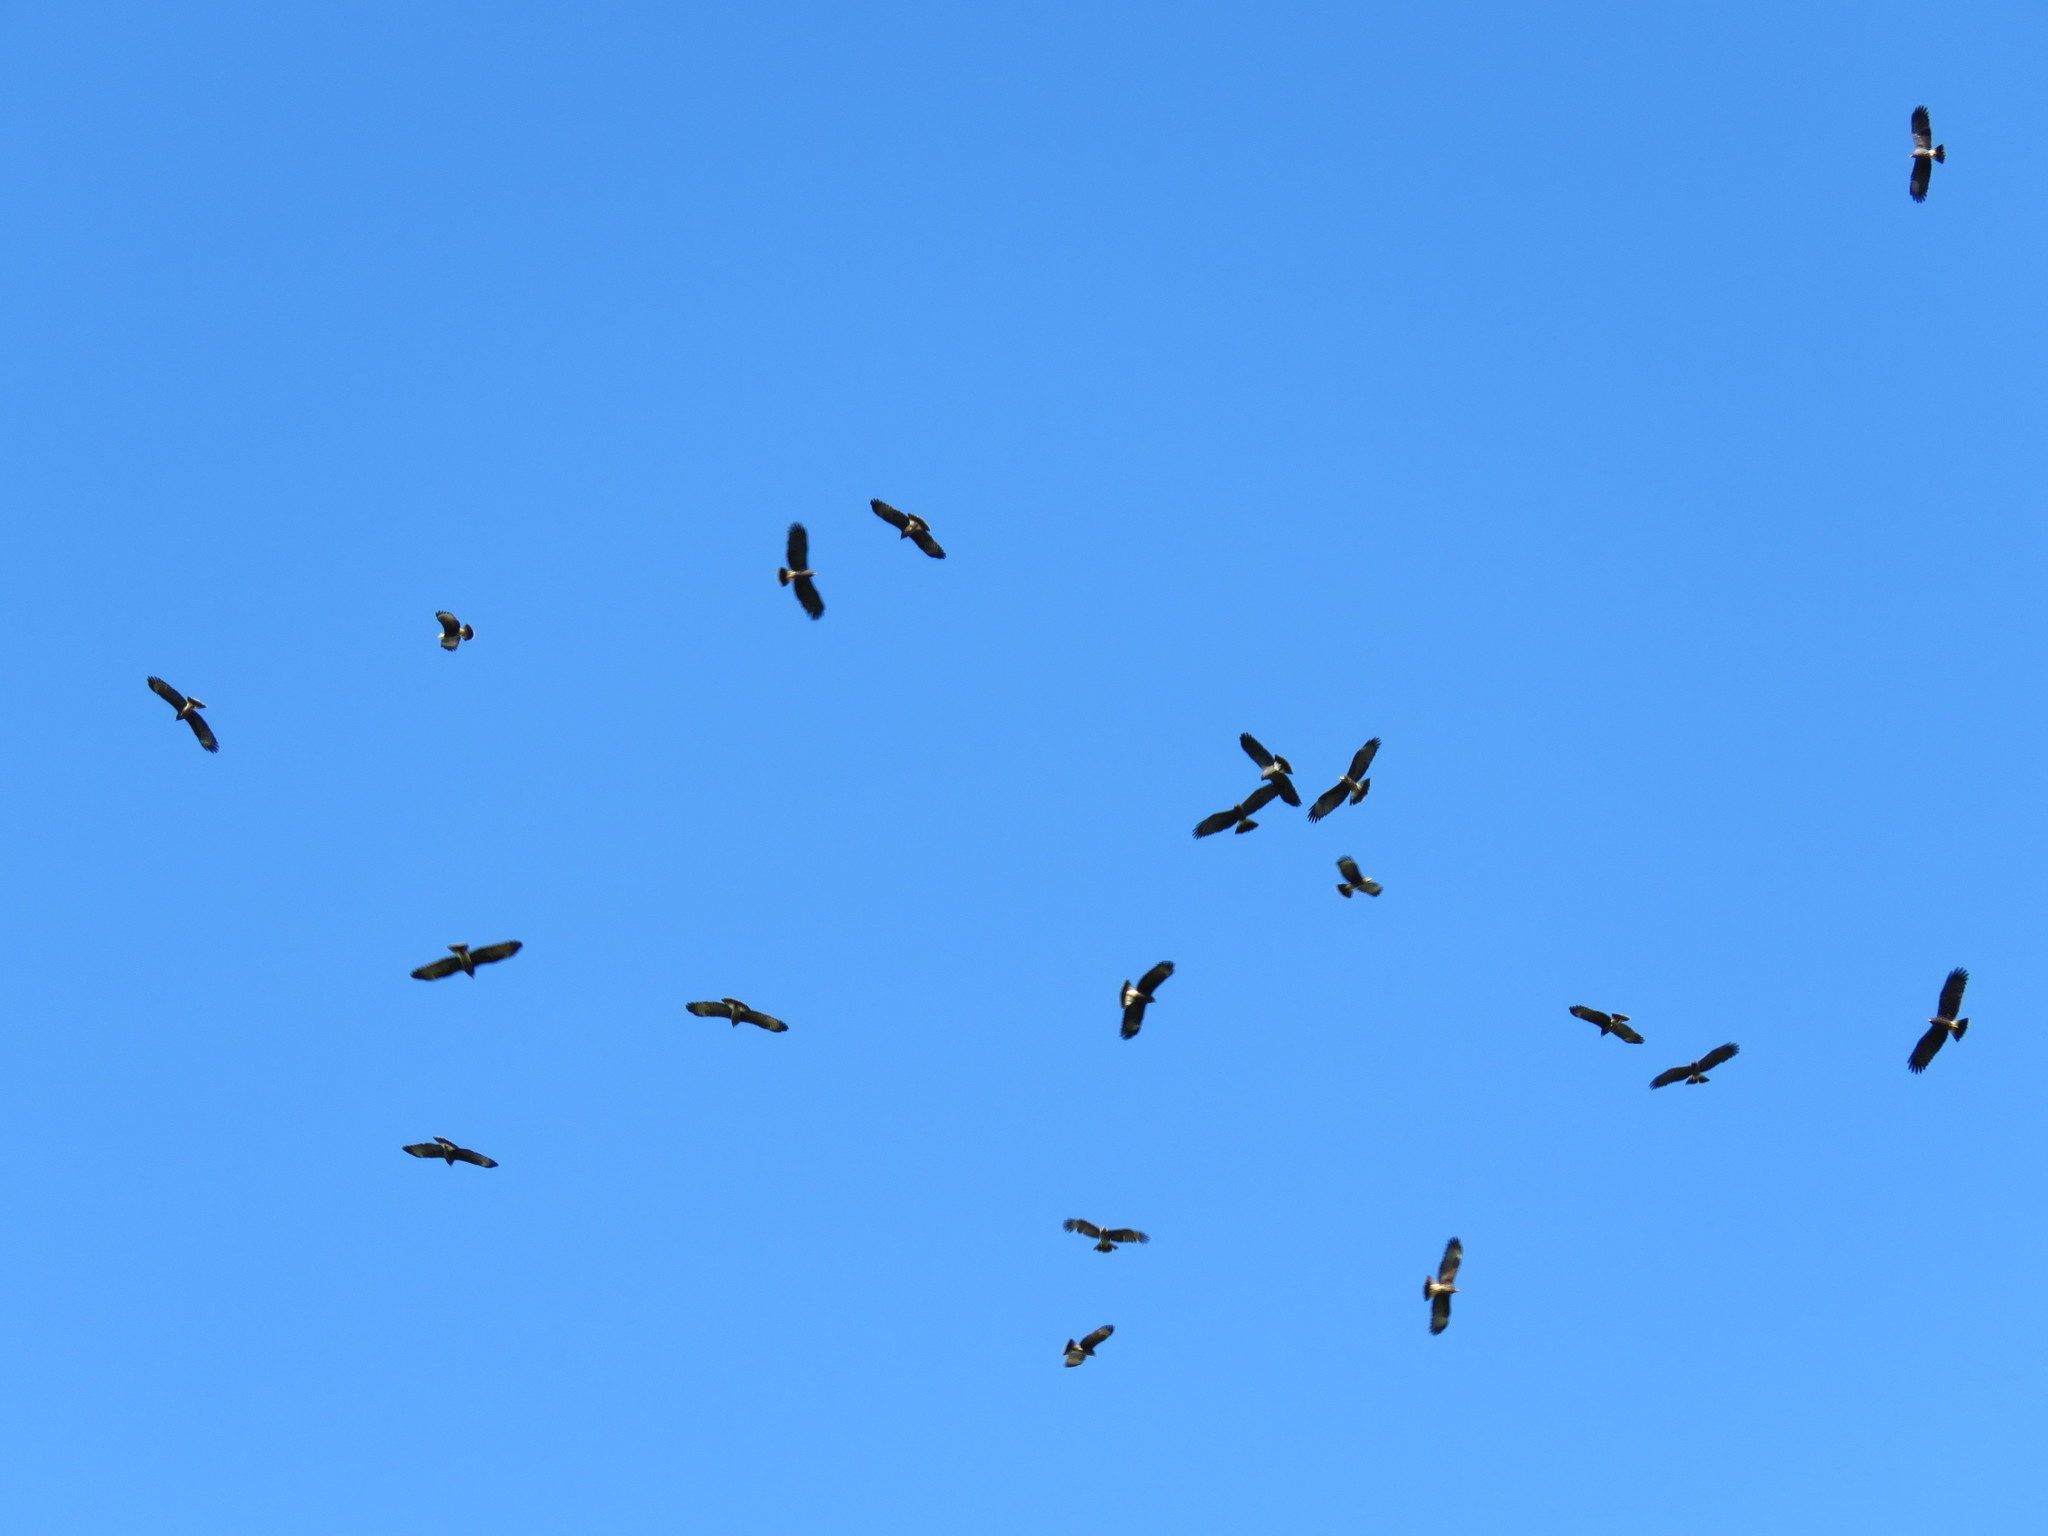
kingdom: Animalia
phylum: Chordata
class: Aves
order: Accipitriformes
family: Accipitridae
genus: Rostrhamus
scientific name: Rostrhamus sociabilis
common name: Snail kite
